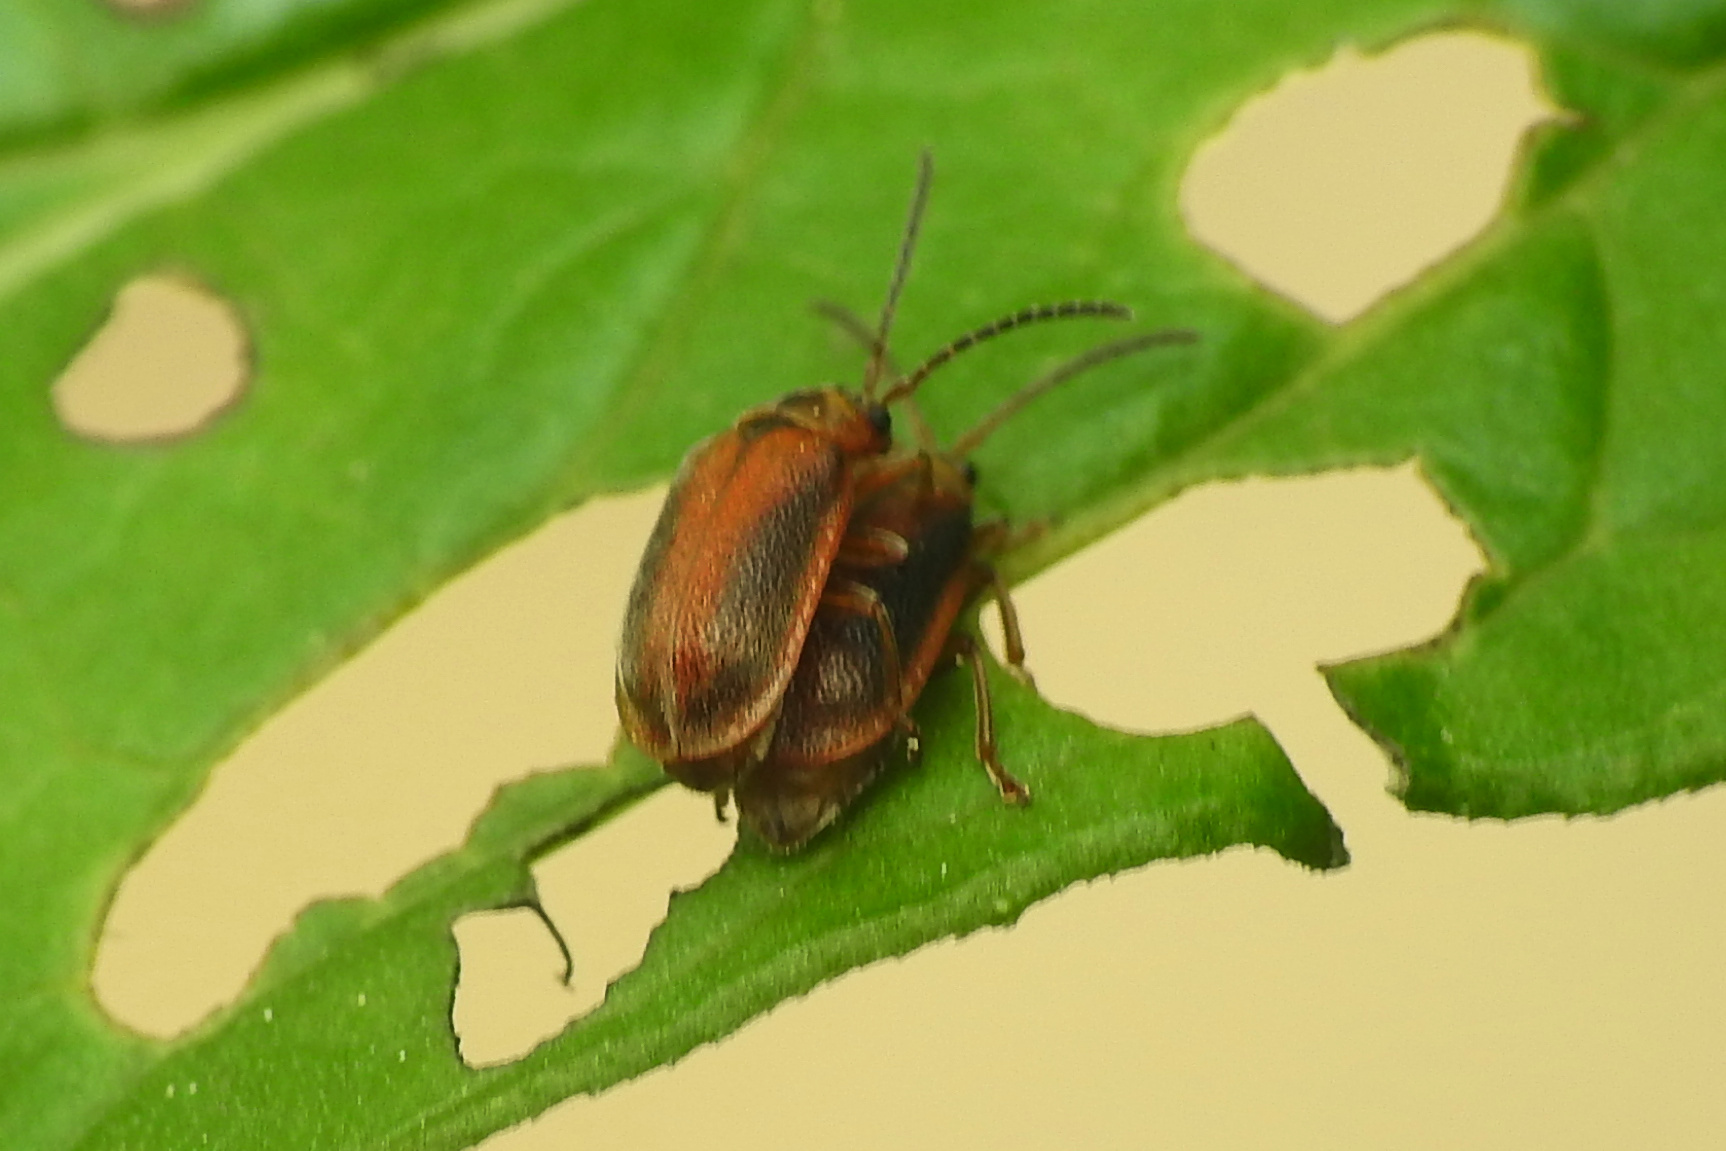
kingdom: Animalia
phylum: Arthropoda
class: Insecta
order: Coleoptera
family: Chrysomelidae
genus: Neogalerucella
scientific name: Neogalerucella calmariensis
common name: Black-margined loosestrife beetle
